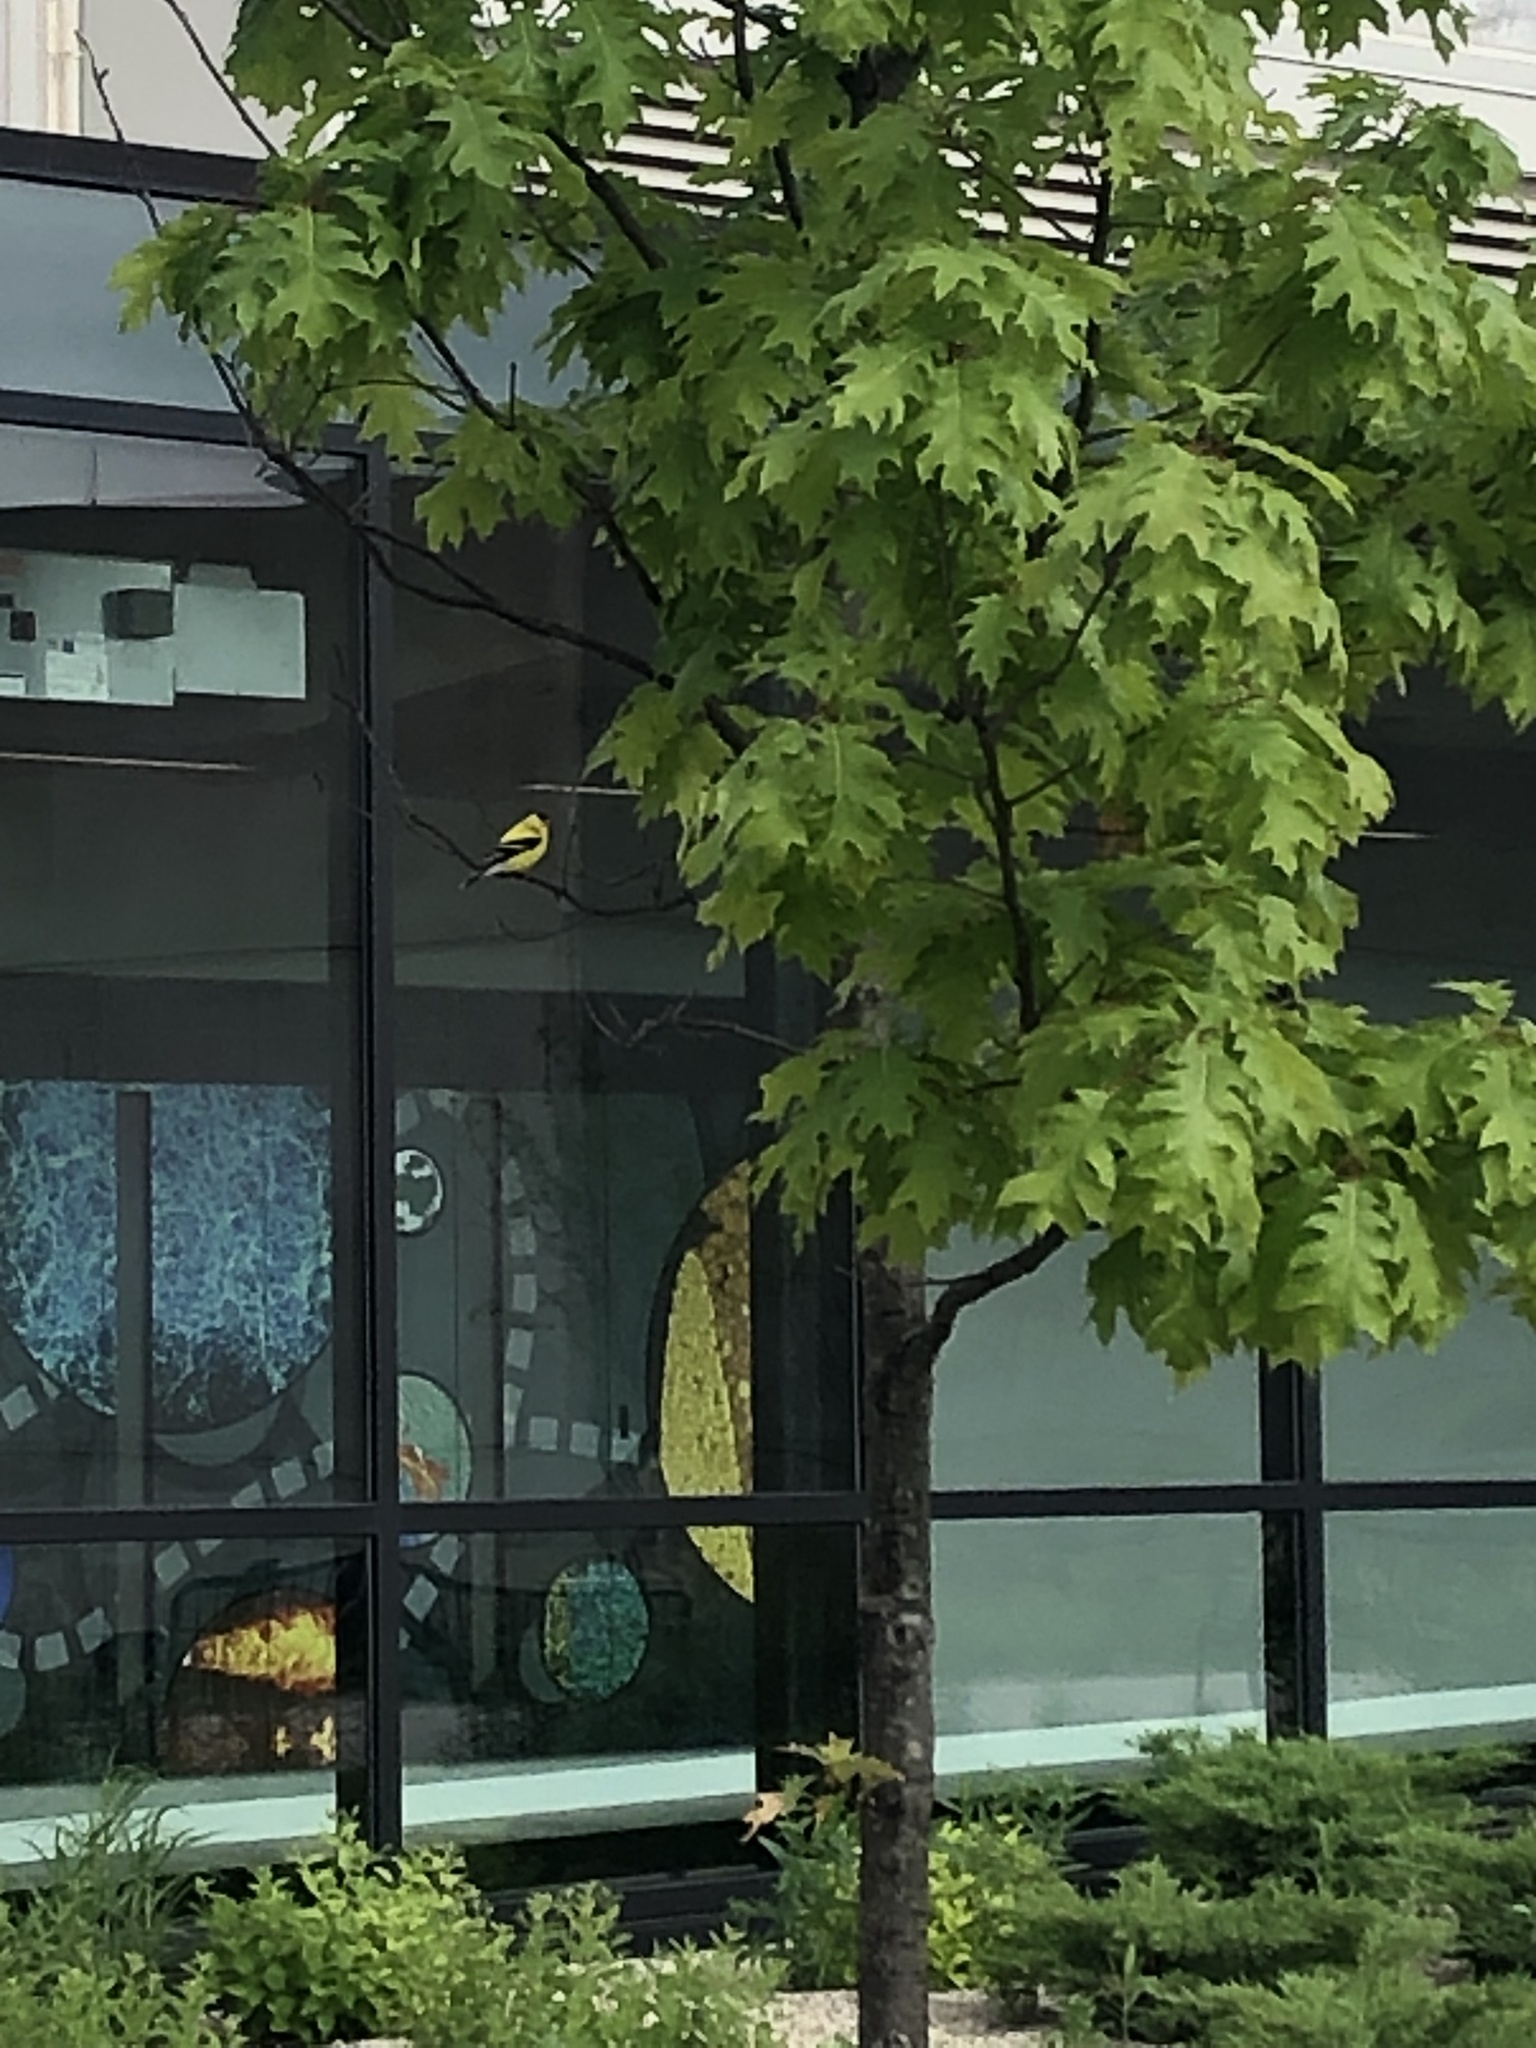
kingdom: Animalia
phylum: Chordata
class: Aves
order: Passeriformes
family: Fringillidae
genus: Spinus
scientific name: Spinus tristis
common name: American goldfinch
